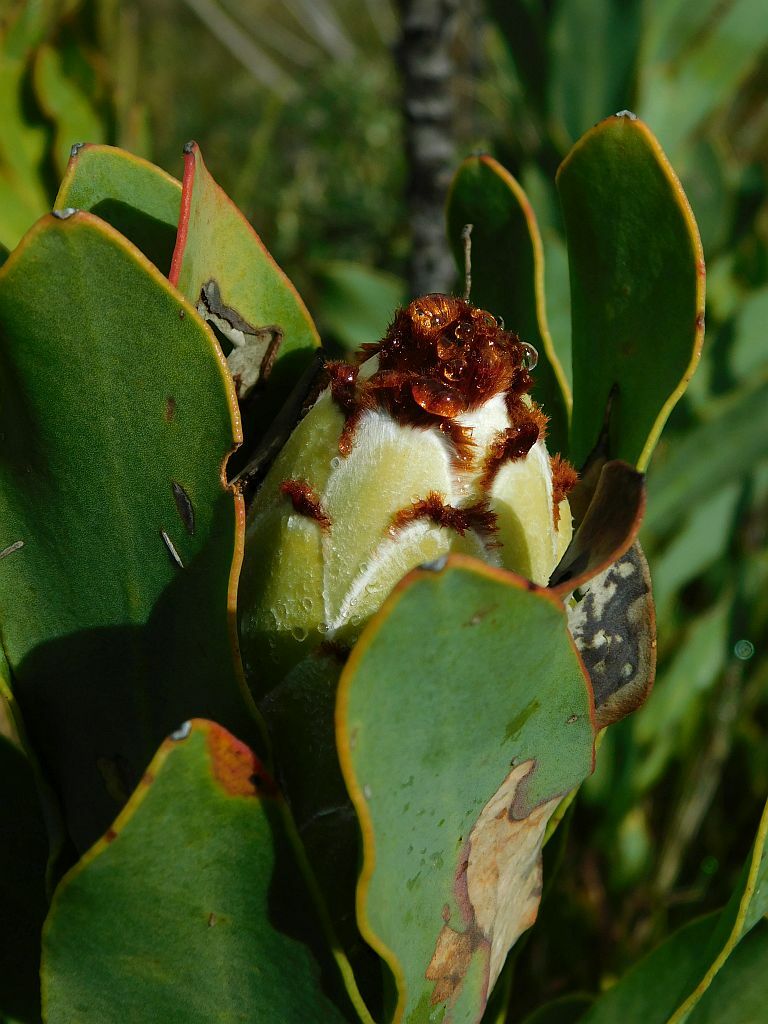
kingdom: Plantae
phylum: Tracheophyta
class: Magnoliopsida
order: Proteales
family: Proteaceae
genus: Protea
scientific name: Protea speciosa
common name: Brown-beard sugarbush
